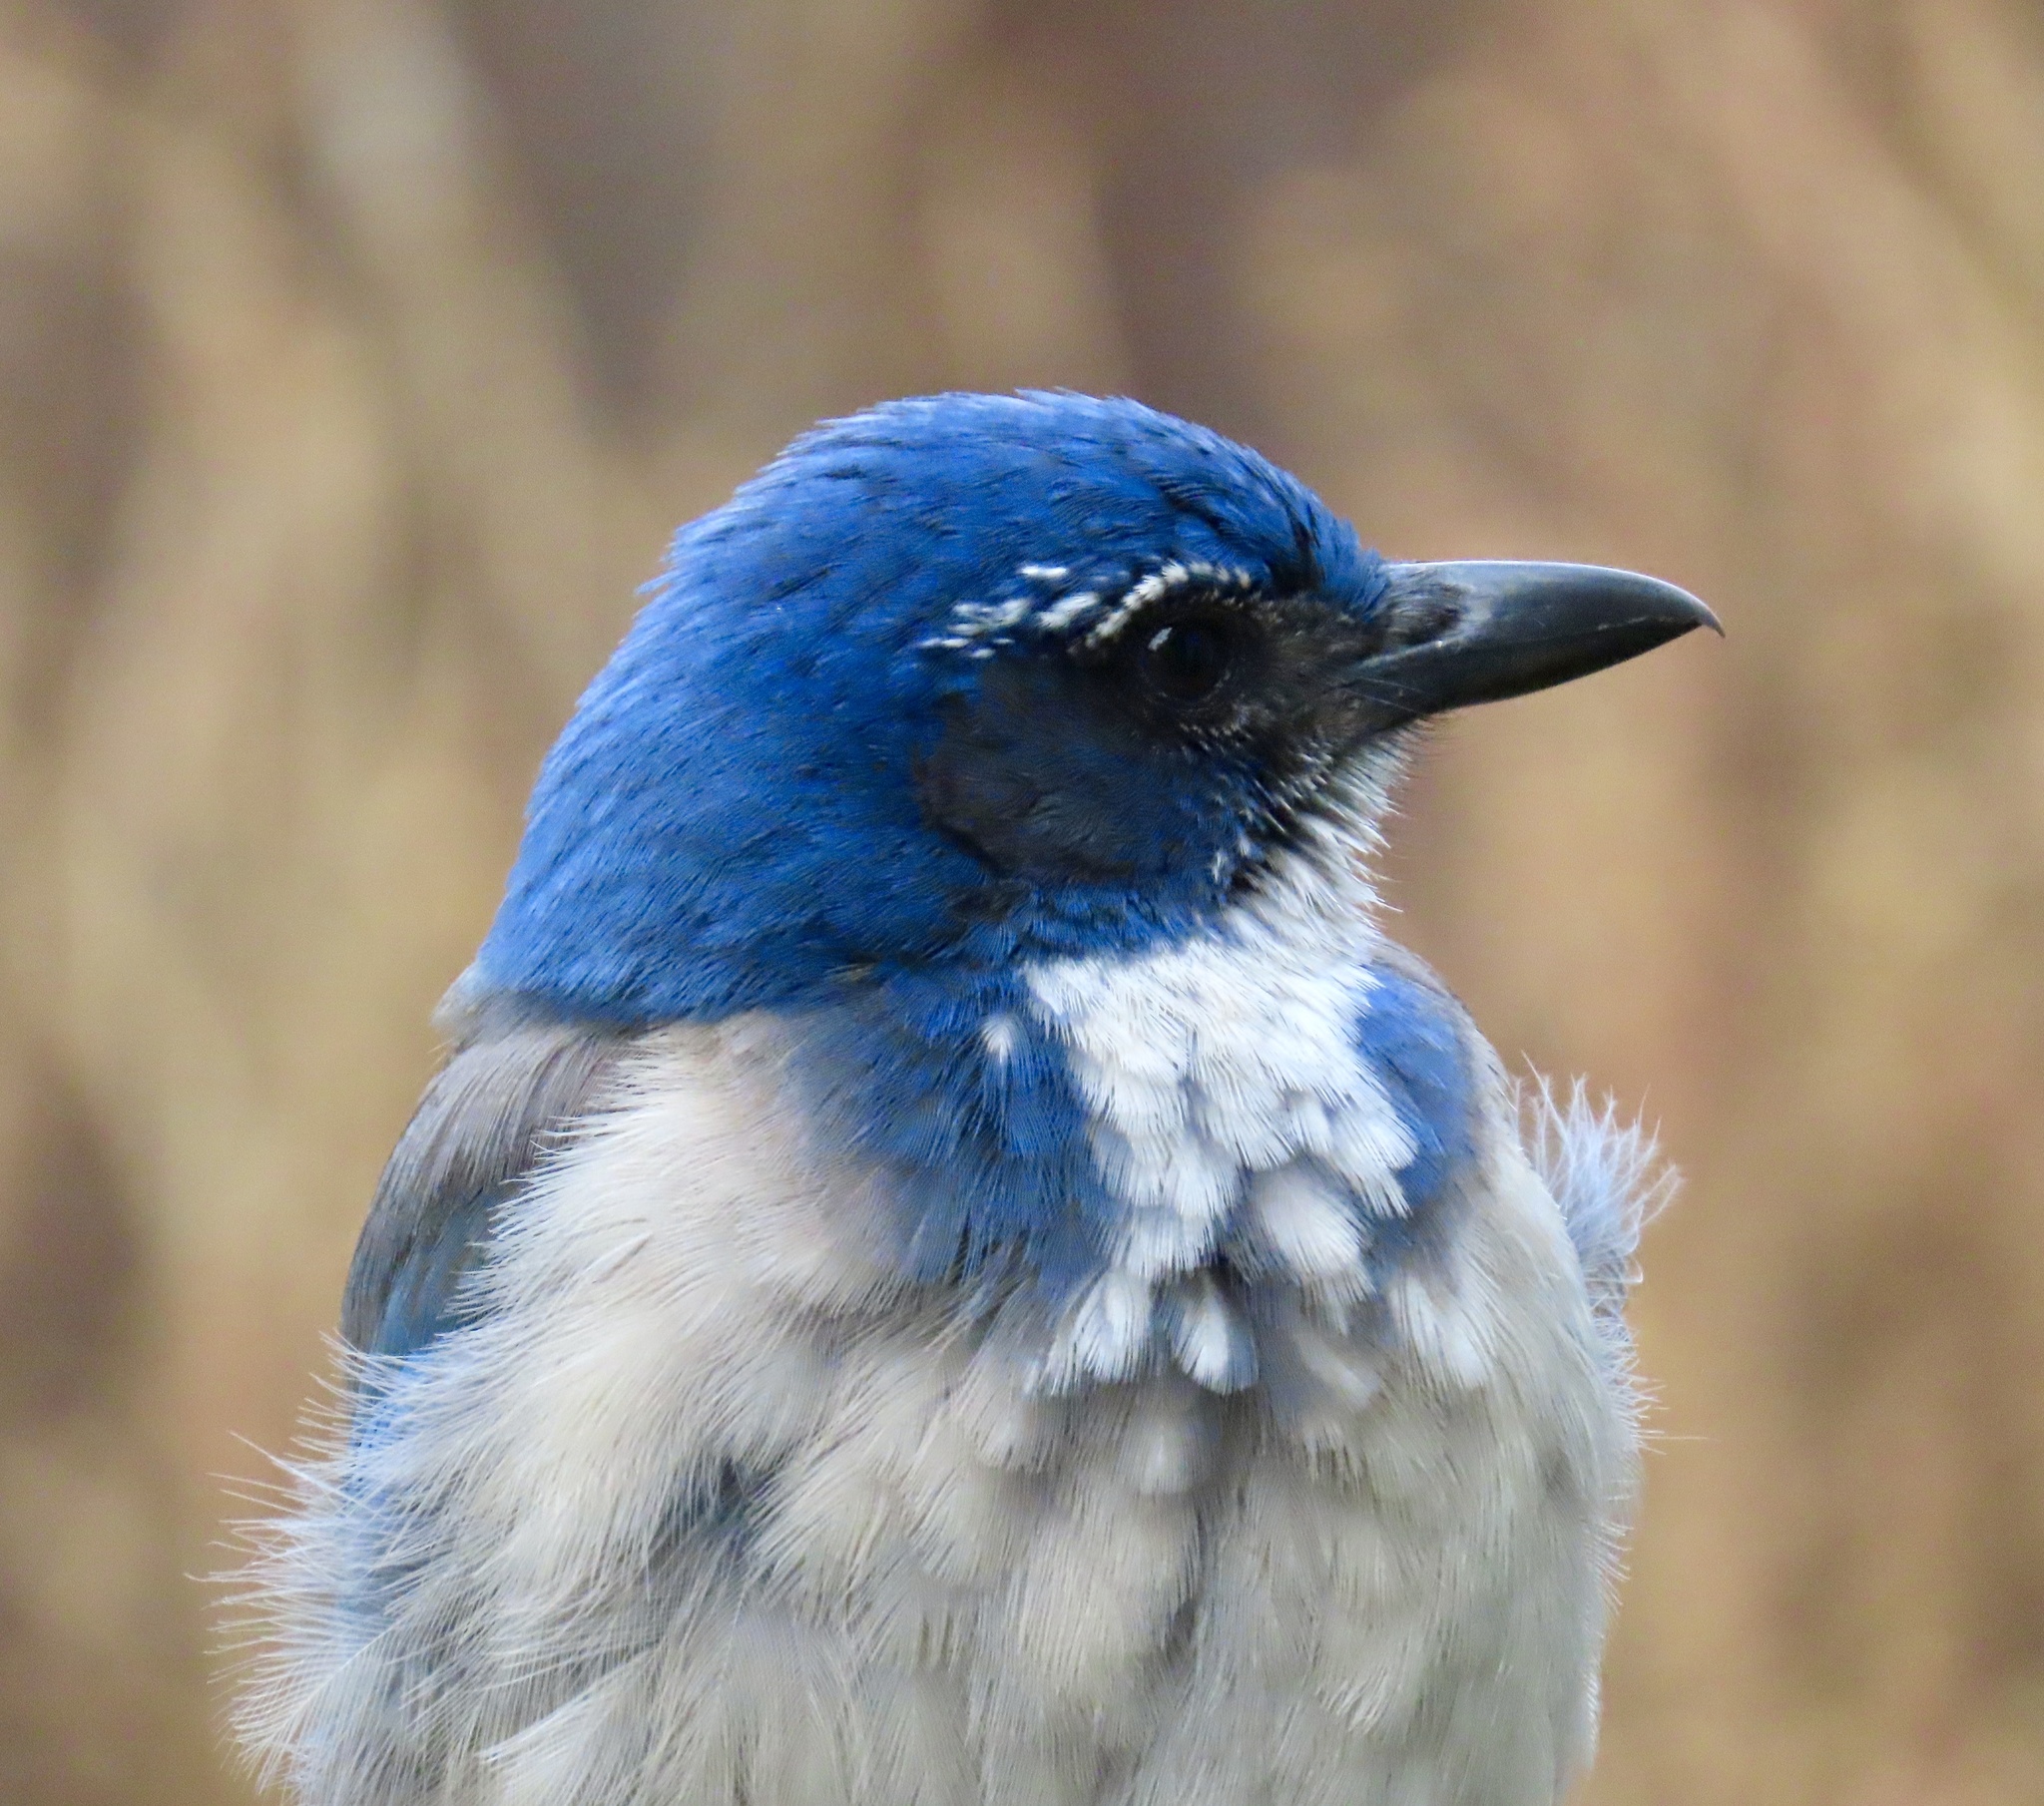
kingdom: Animalia
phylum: Chordata
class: Aves
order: Passeriformes
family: Corvidae
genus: Aphelocoma
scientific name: Aphelocoma californica
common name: California scrub-jay
